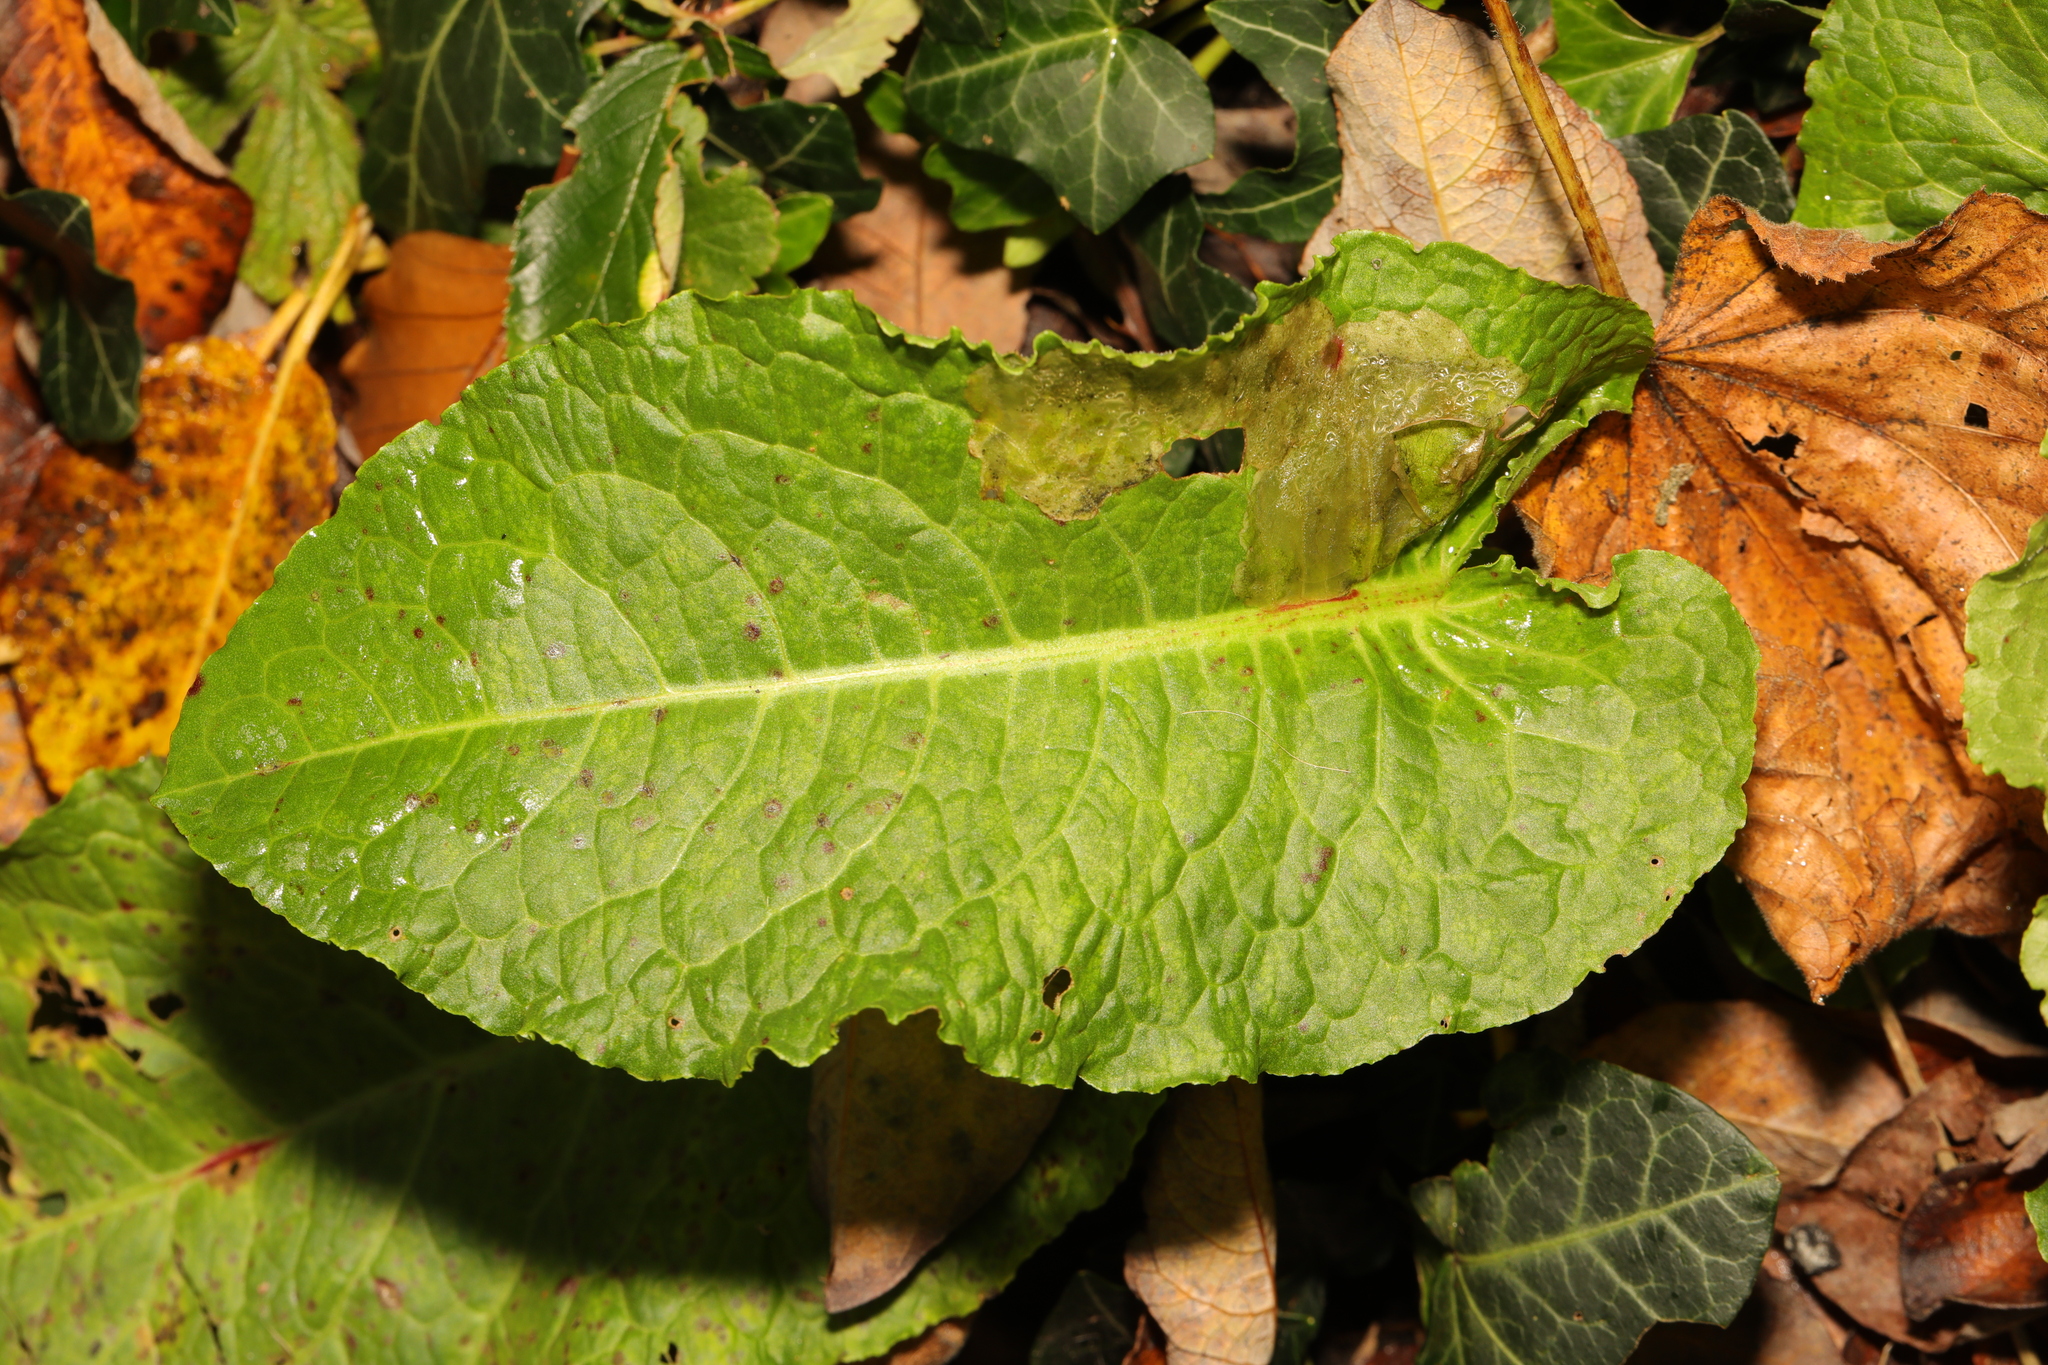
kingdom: Plantae
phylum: Tracheophyta
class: Magnoliopsida
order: Caryophyllales
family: Polygonaceae
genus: Rumex
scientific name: Rumex obtusifolius
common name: Bitter dock
